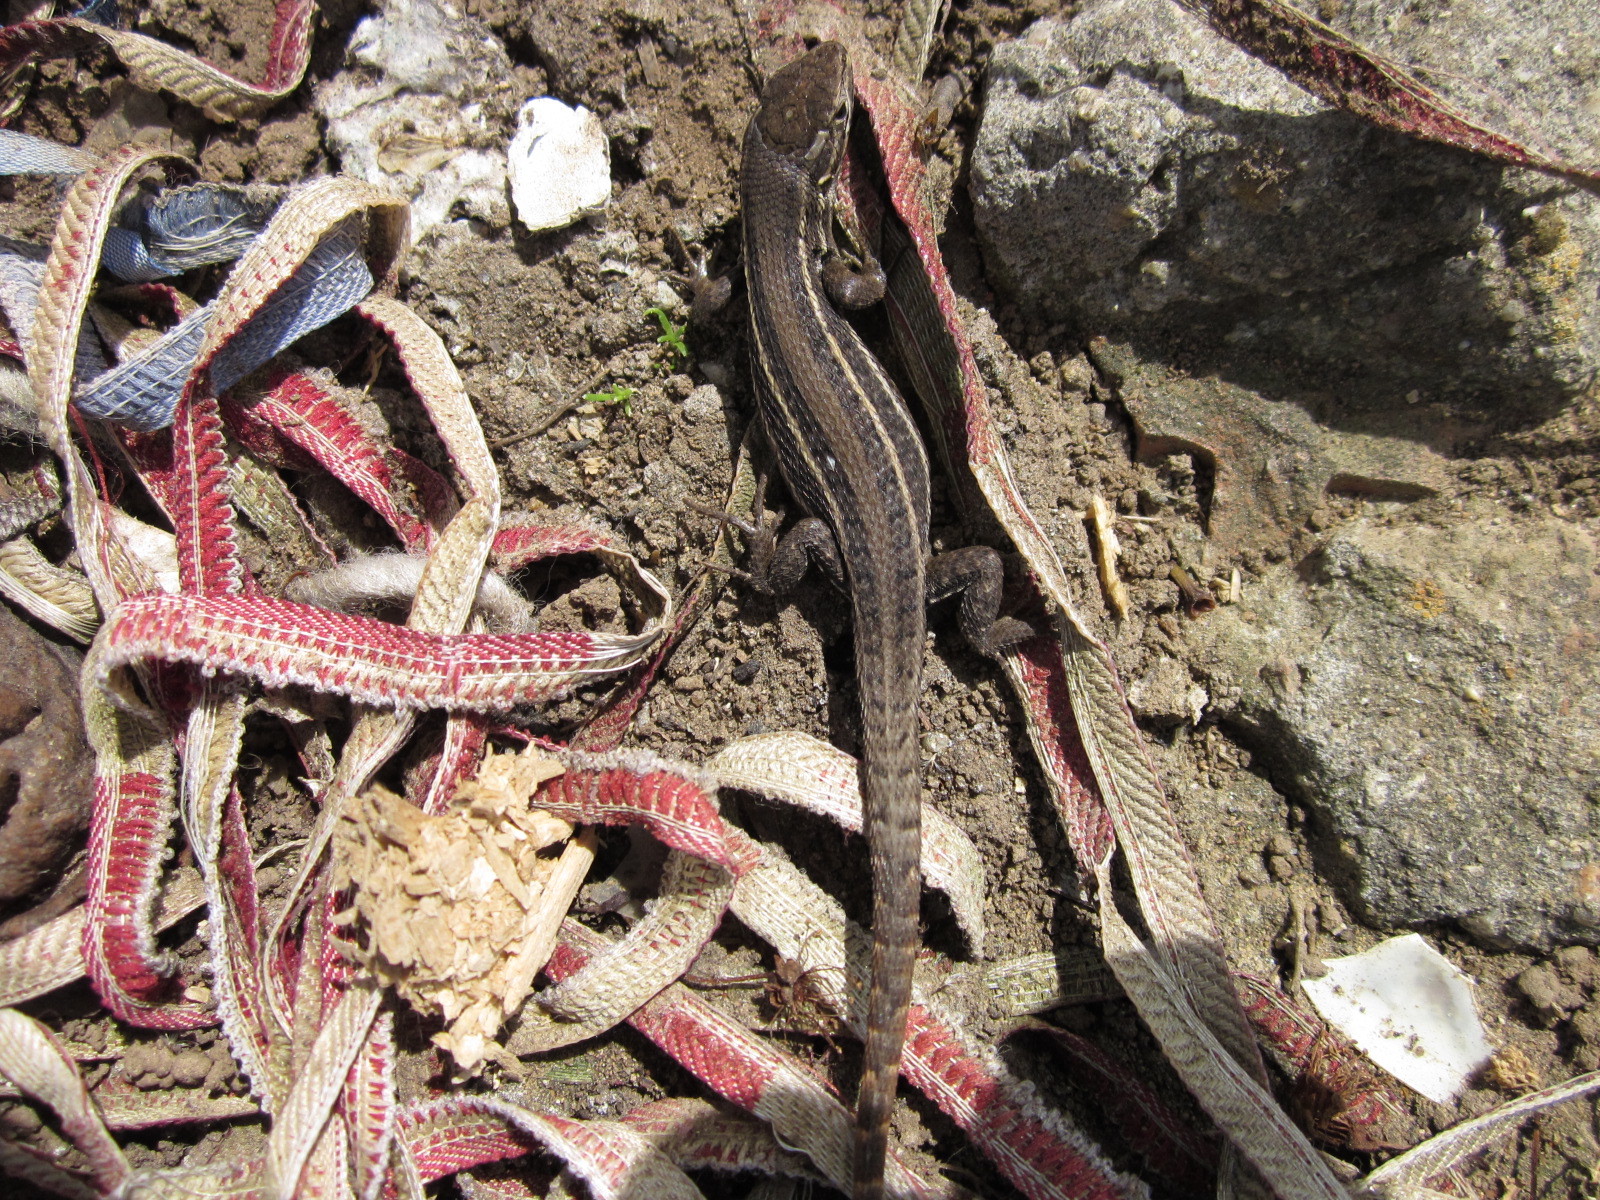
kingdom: Animalia
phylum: Chordata
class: Squamata
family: Liolaemidae
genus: Liolaemus
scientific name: Liolaemus lemniscatus
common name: Wreath tree iguana
